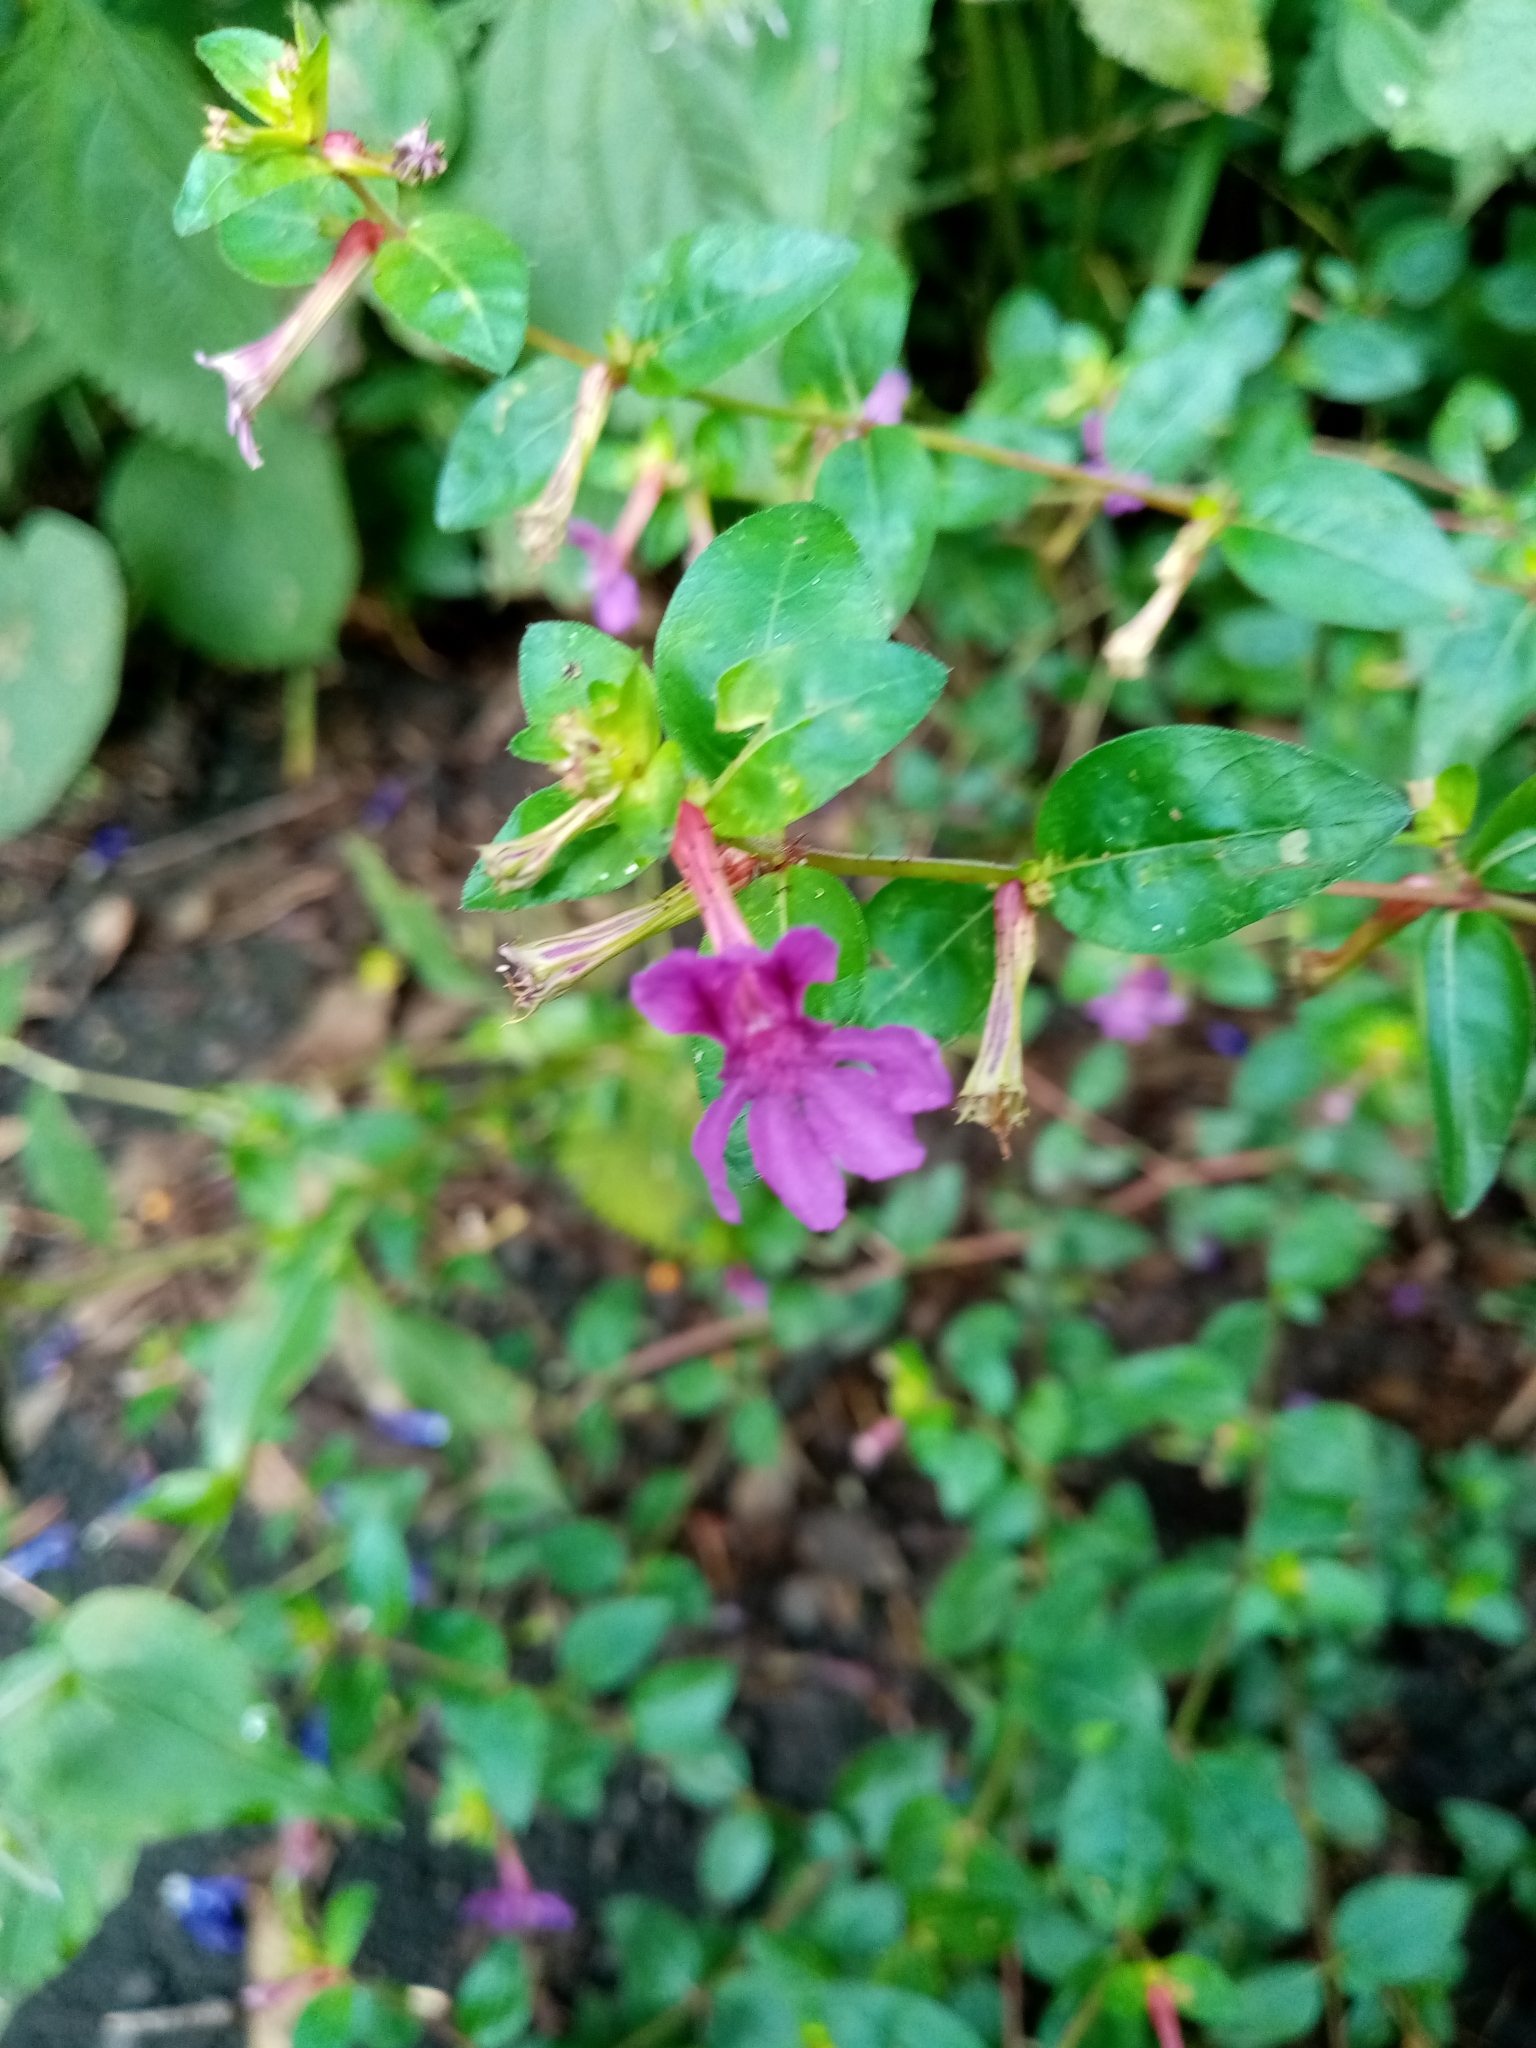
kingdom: Plantae
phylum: Tracheophyta
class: Magnoliopsida
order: Myrtales
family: Lythraceae
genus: Cuphea
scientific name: Cuphea aequipetala
